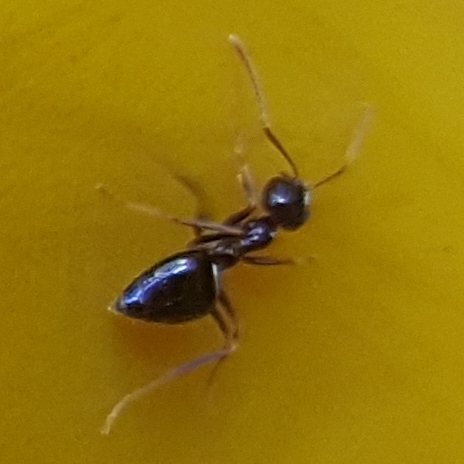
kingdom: Animalia
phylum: Arthropoda
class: Insecta
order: Hymenoptera
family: Formicidae
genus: Prenolepis
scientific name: Prenolepis imparis
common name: Small honey ant
